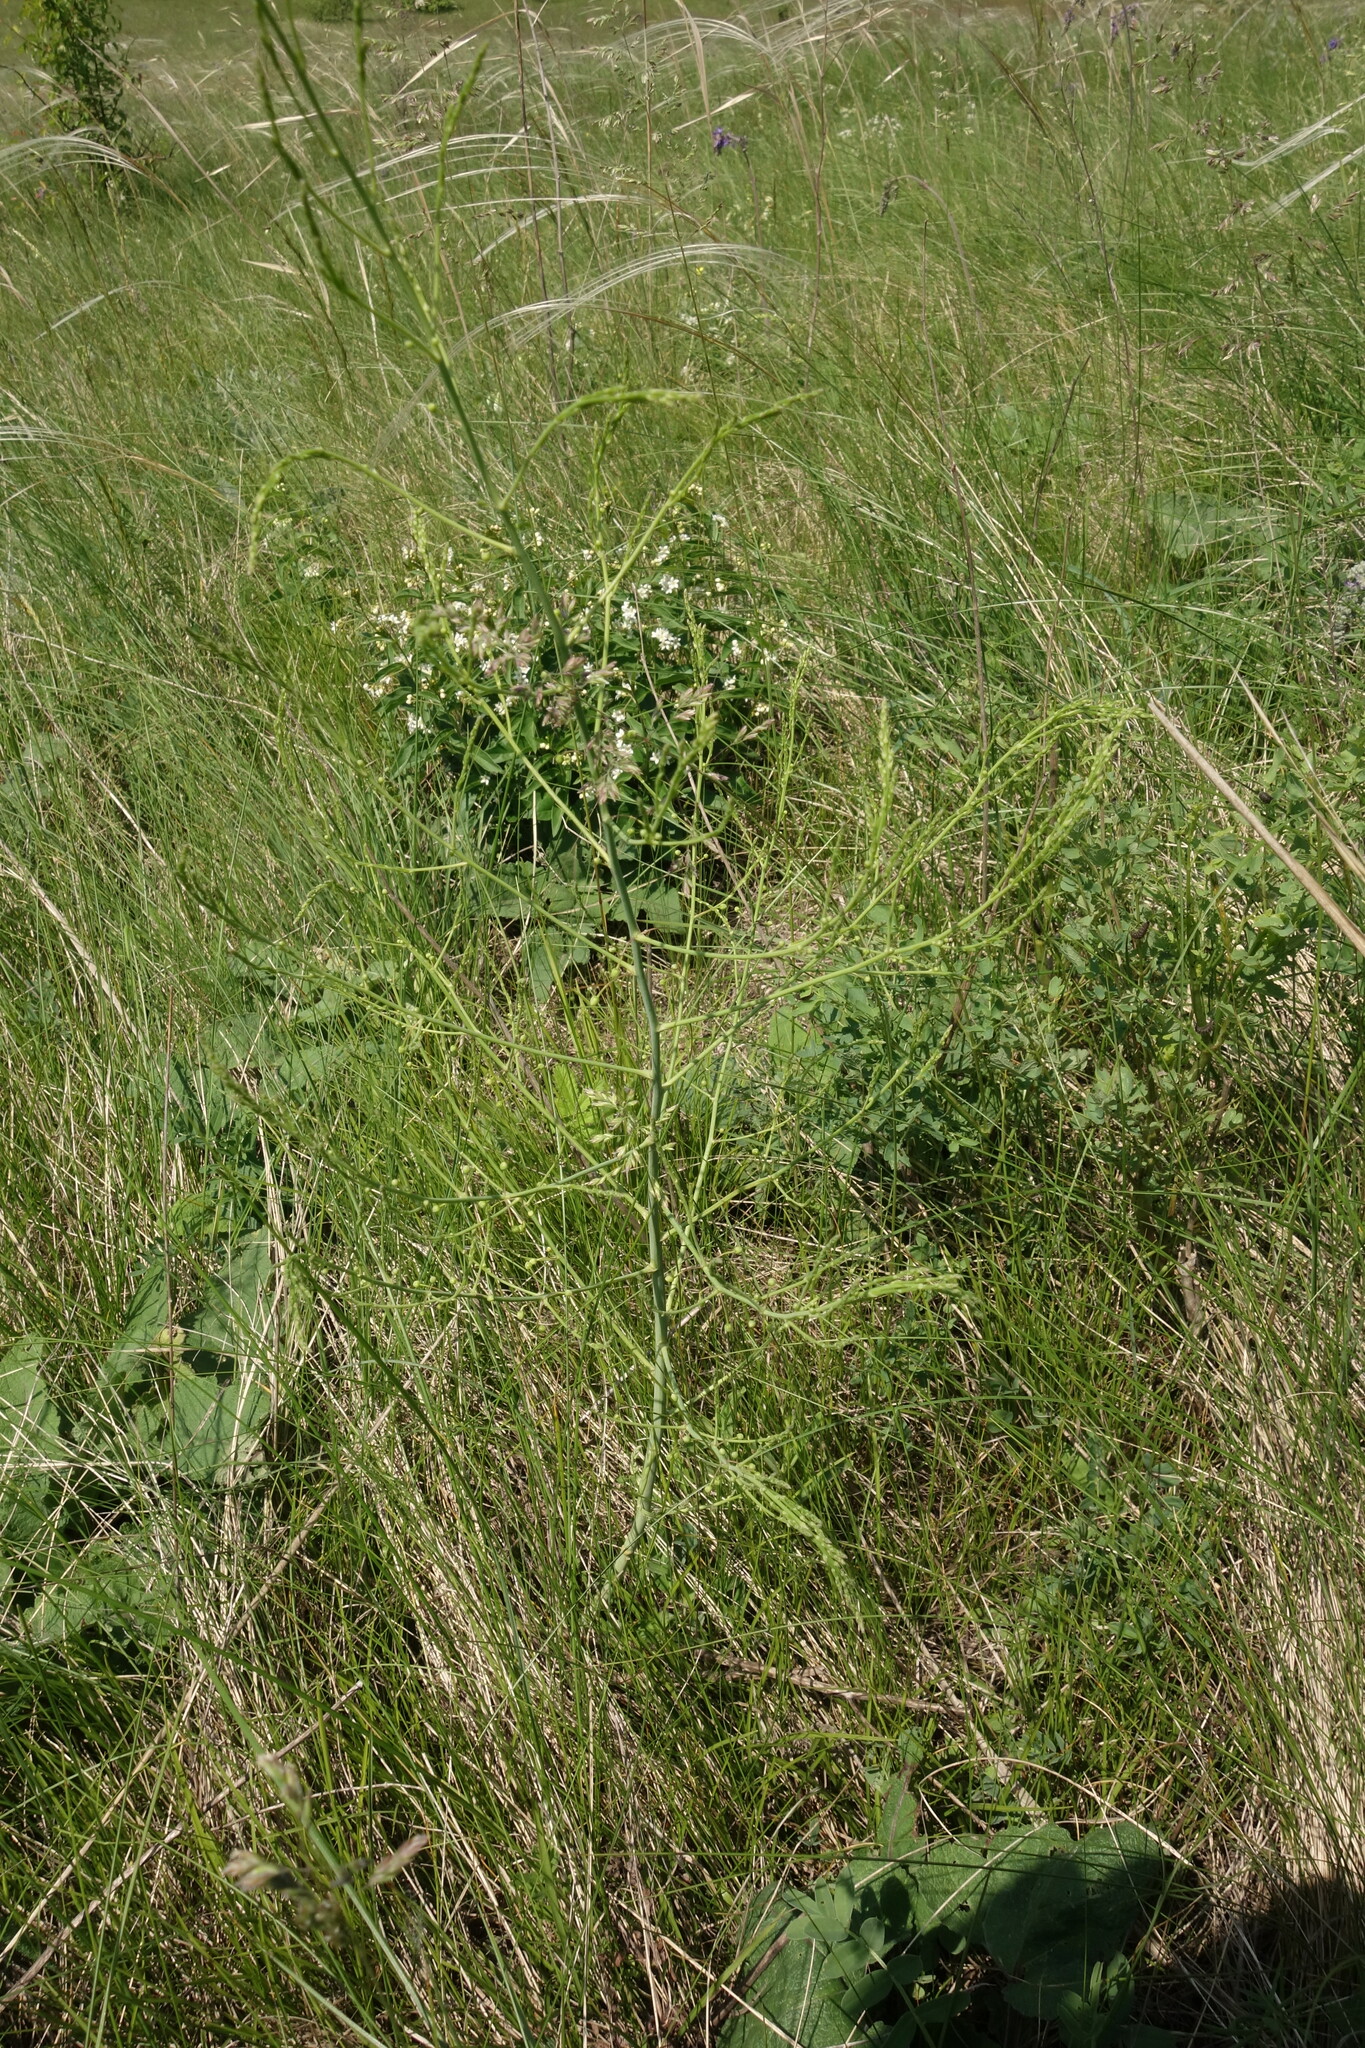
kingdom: Plantae
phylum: Tracheophyta
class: Liliopsida
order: Asparagales
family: Asparagaceae
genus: Asparagus
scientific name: Asparagus officinalis
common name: Garden asparagus
